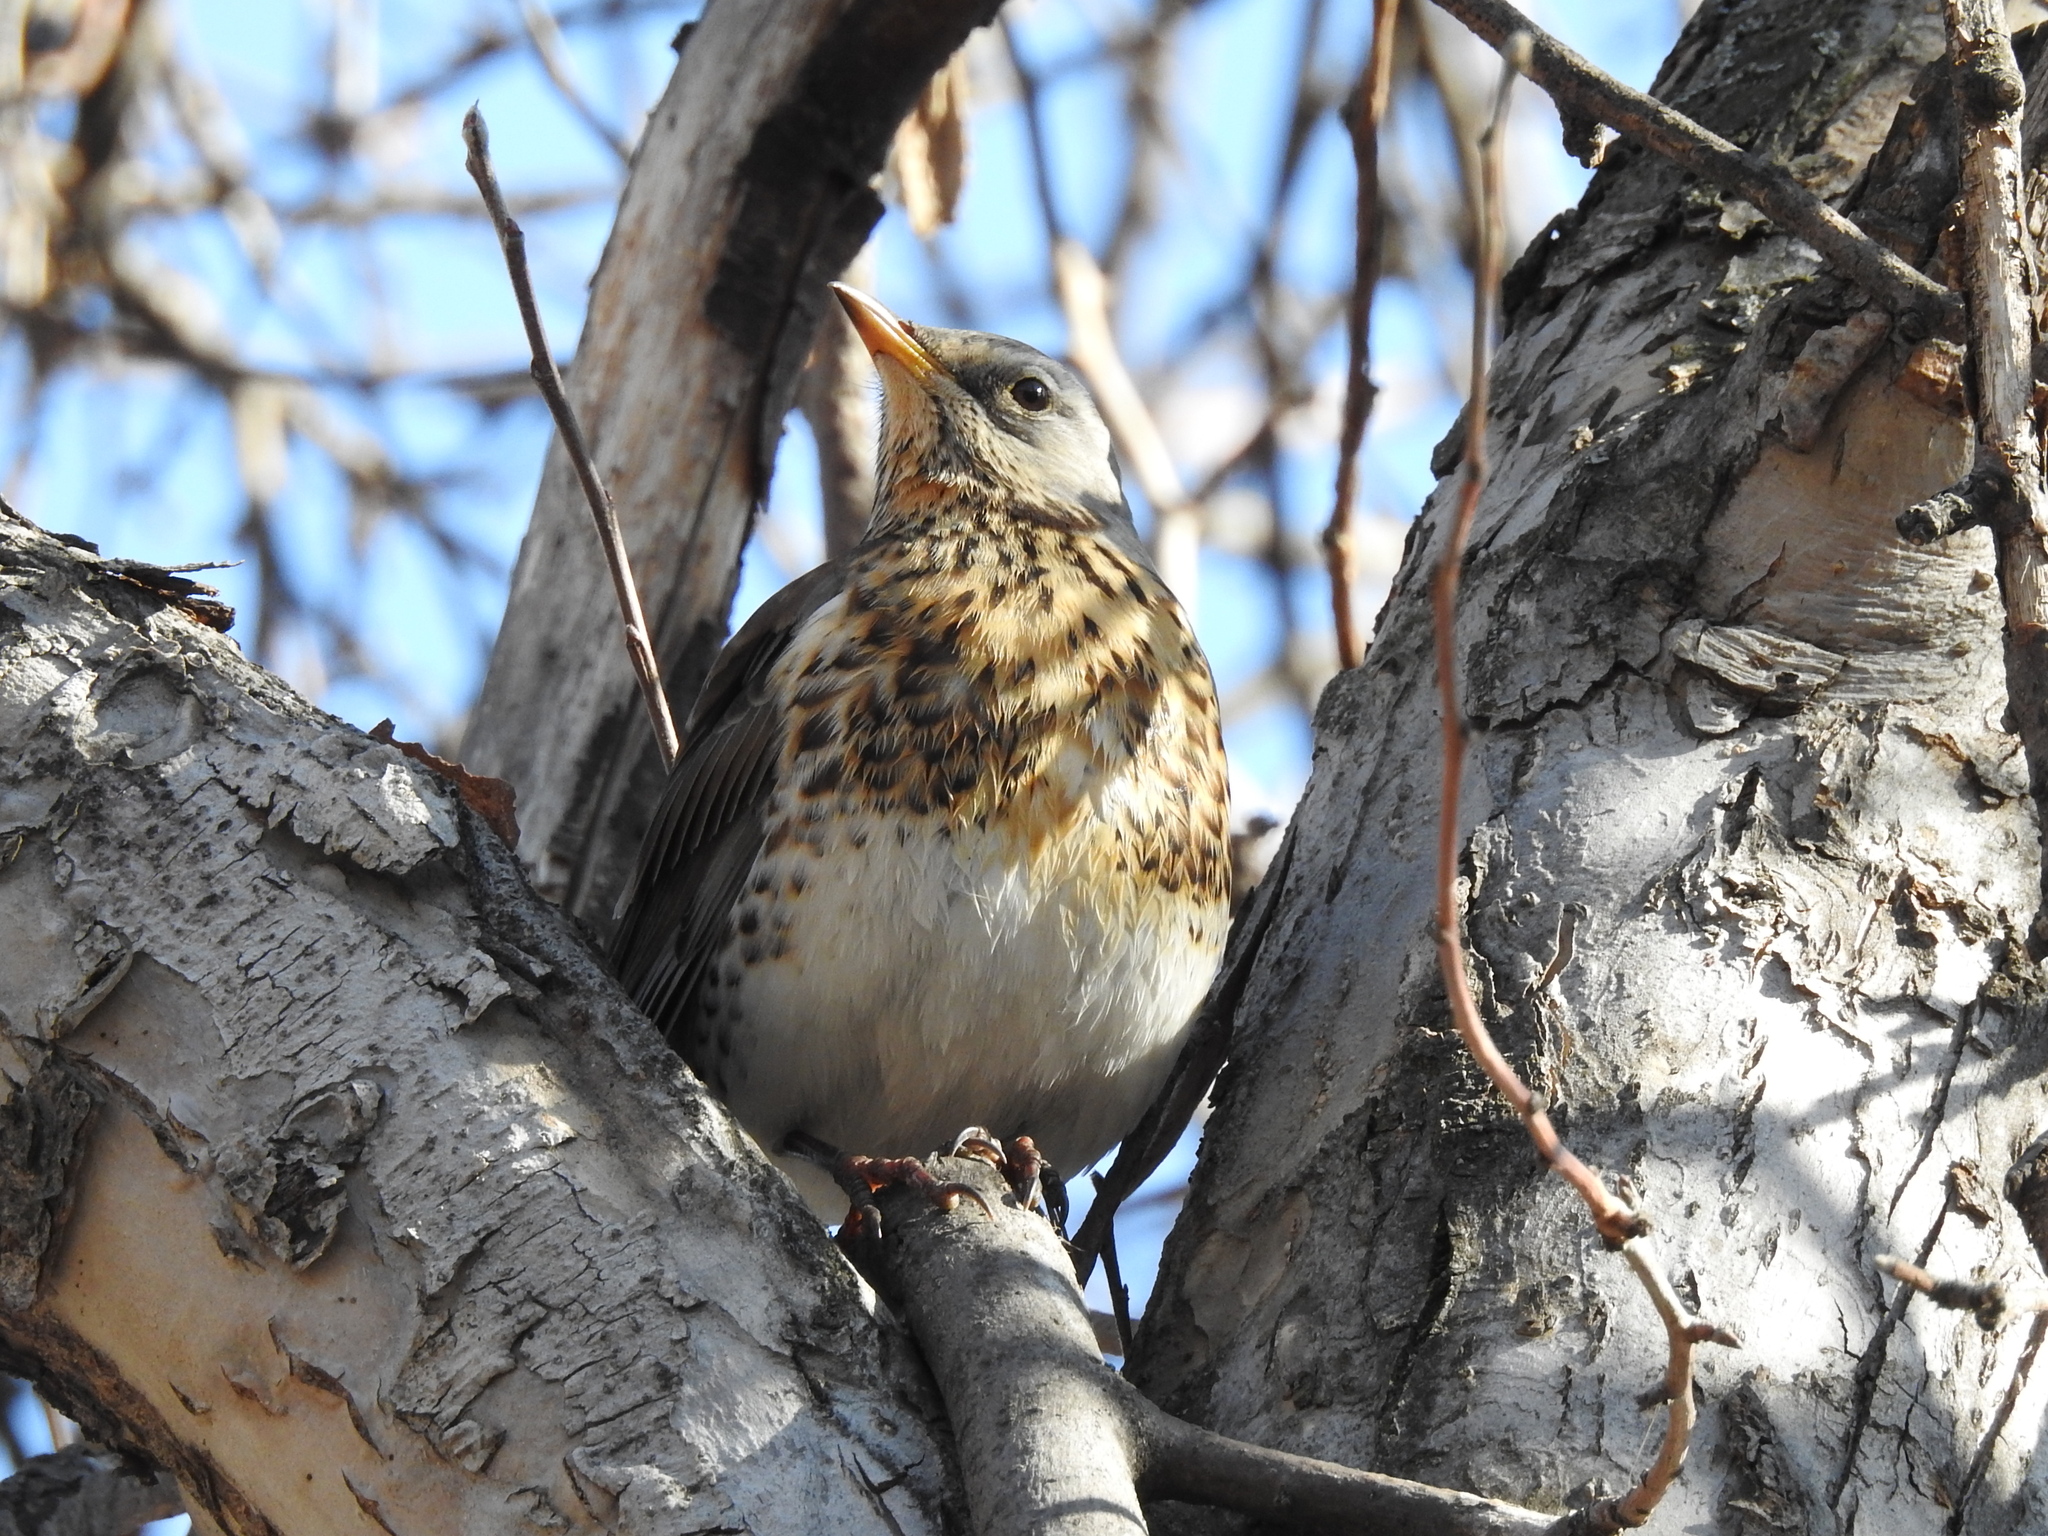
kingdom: Animalia
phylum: Chordata
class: Aves
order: Passeriformes
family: Turdidae
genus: Turdus
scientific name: Turdus pilaris
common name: Fieldfare
